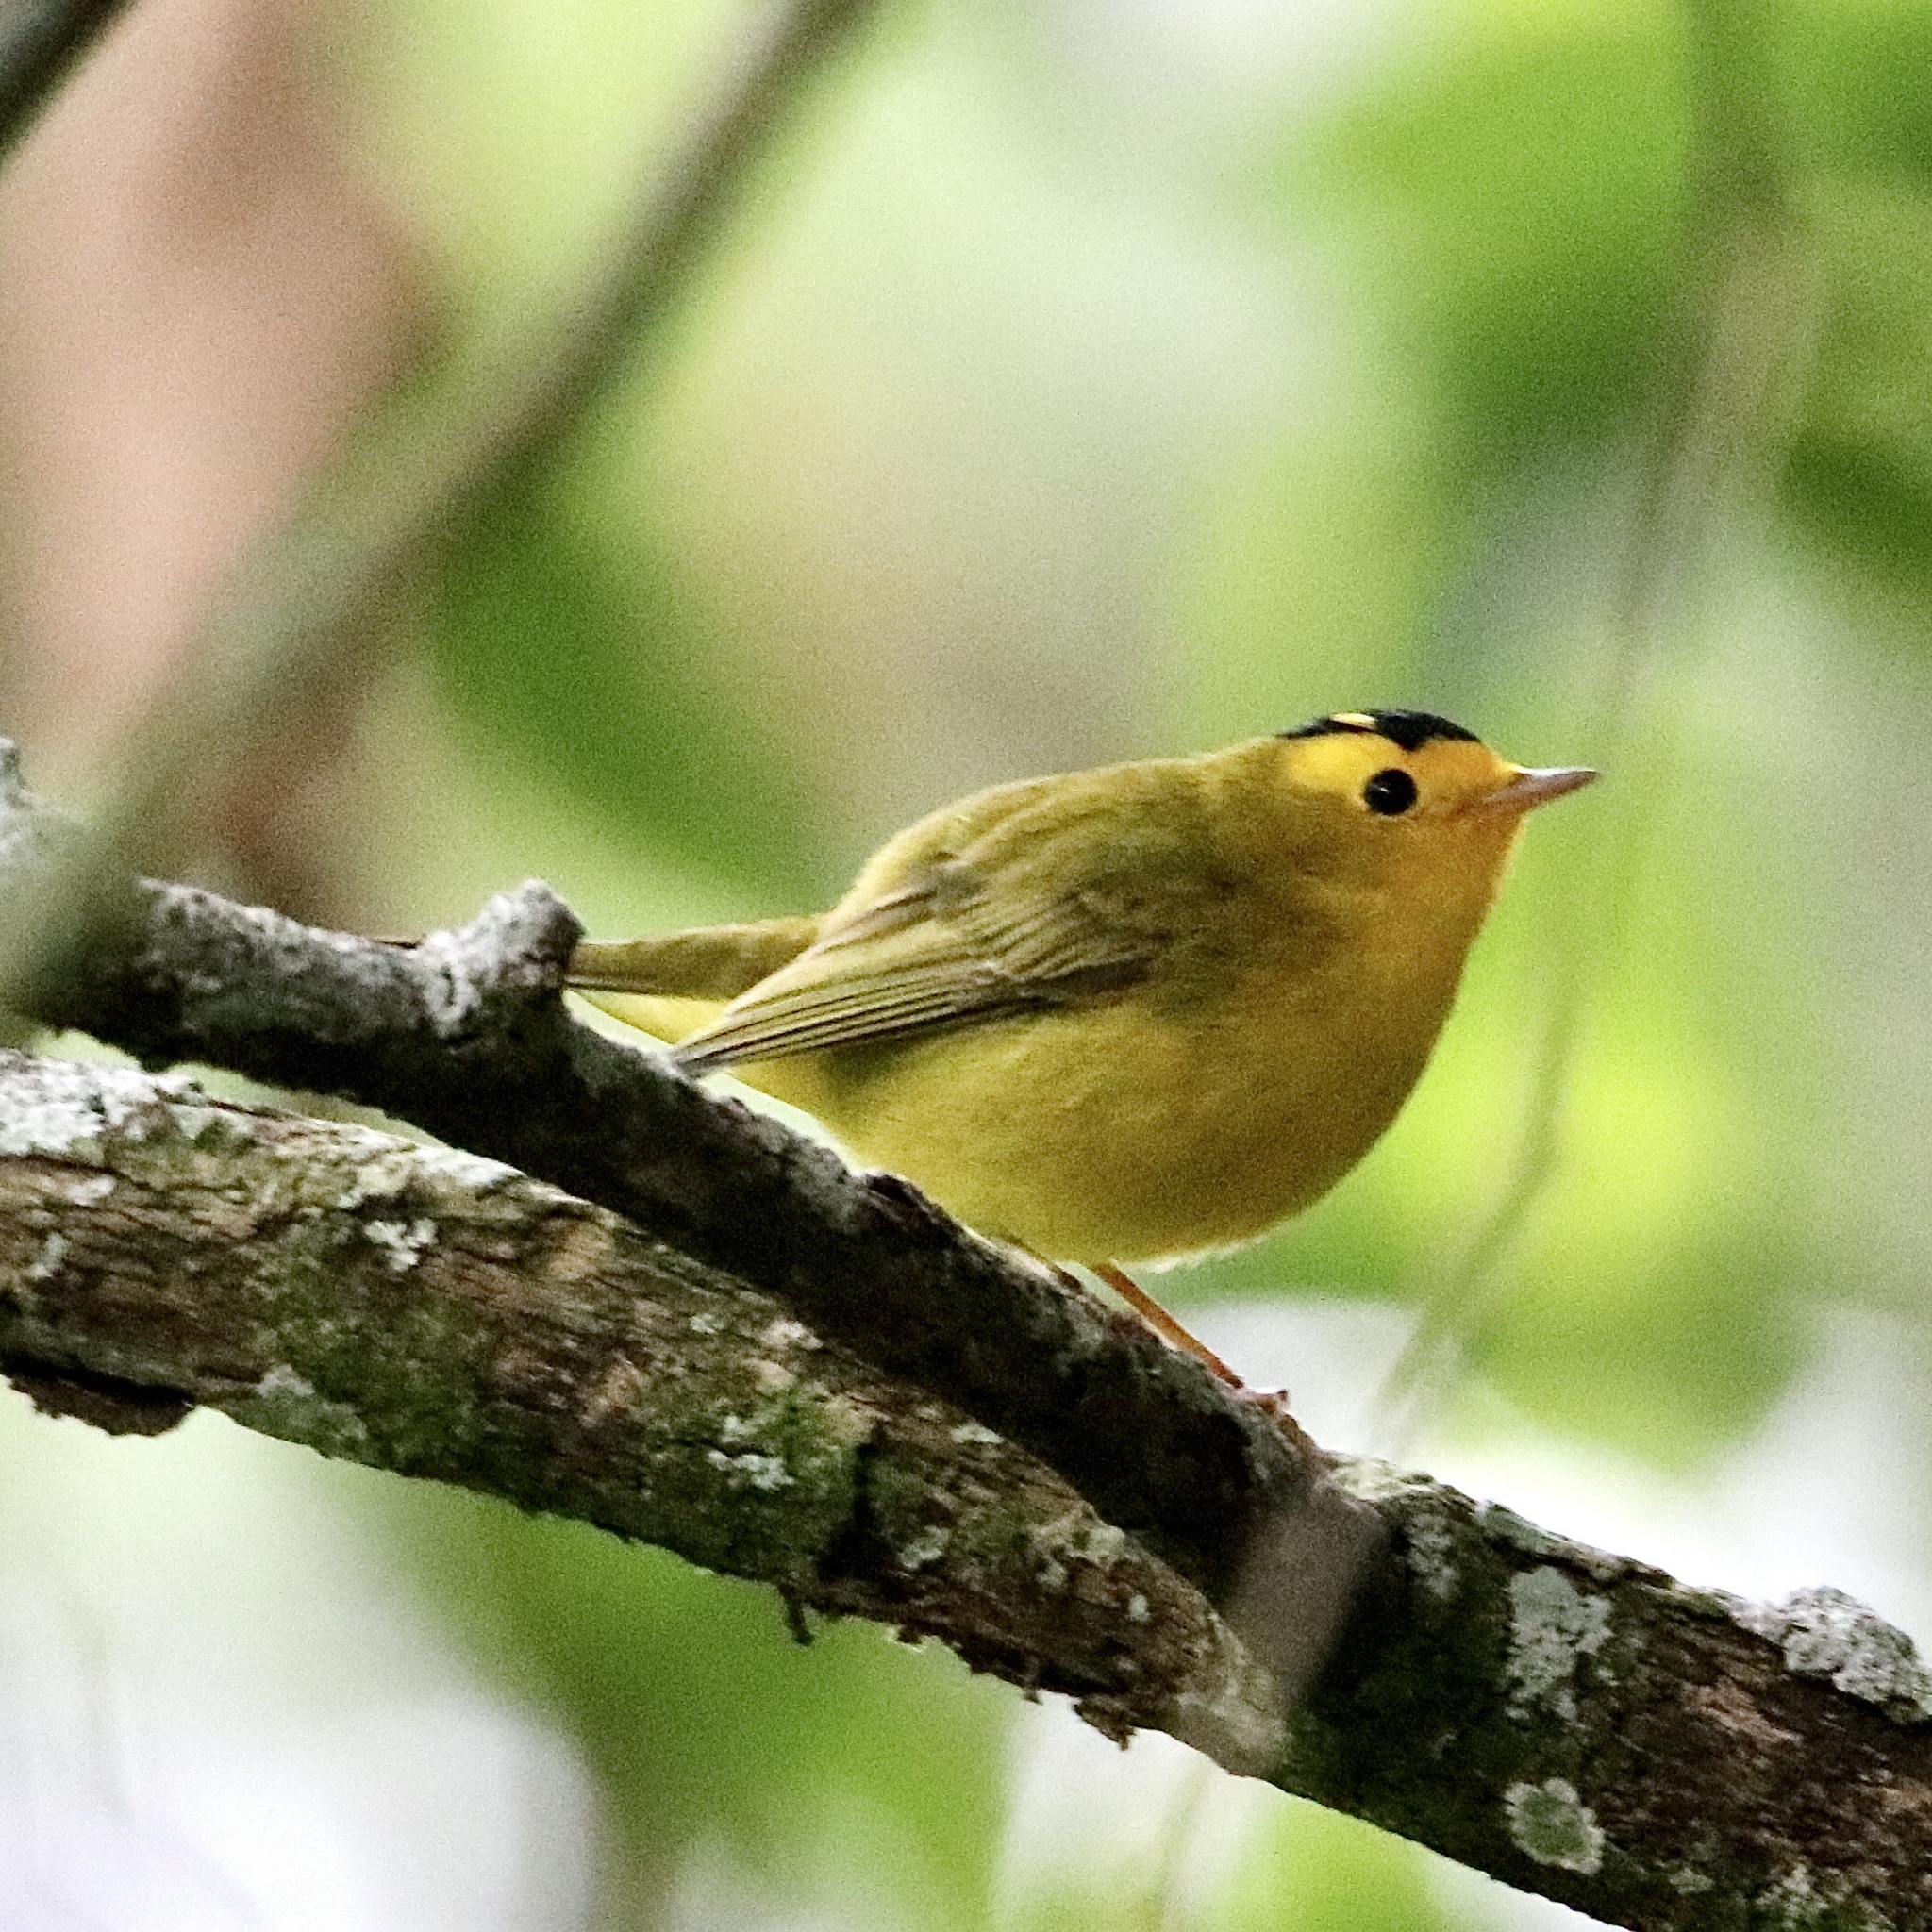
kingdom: Animalia
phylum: Chordata
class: Aves
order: Passeriformes
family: Parulidae
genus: Cardellina
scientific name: Cardellina pusilla
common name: Wilson's warbler
